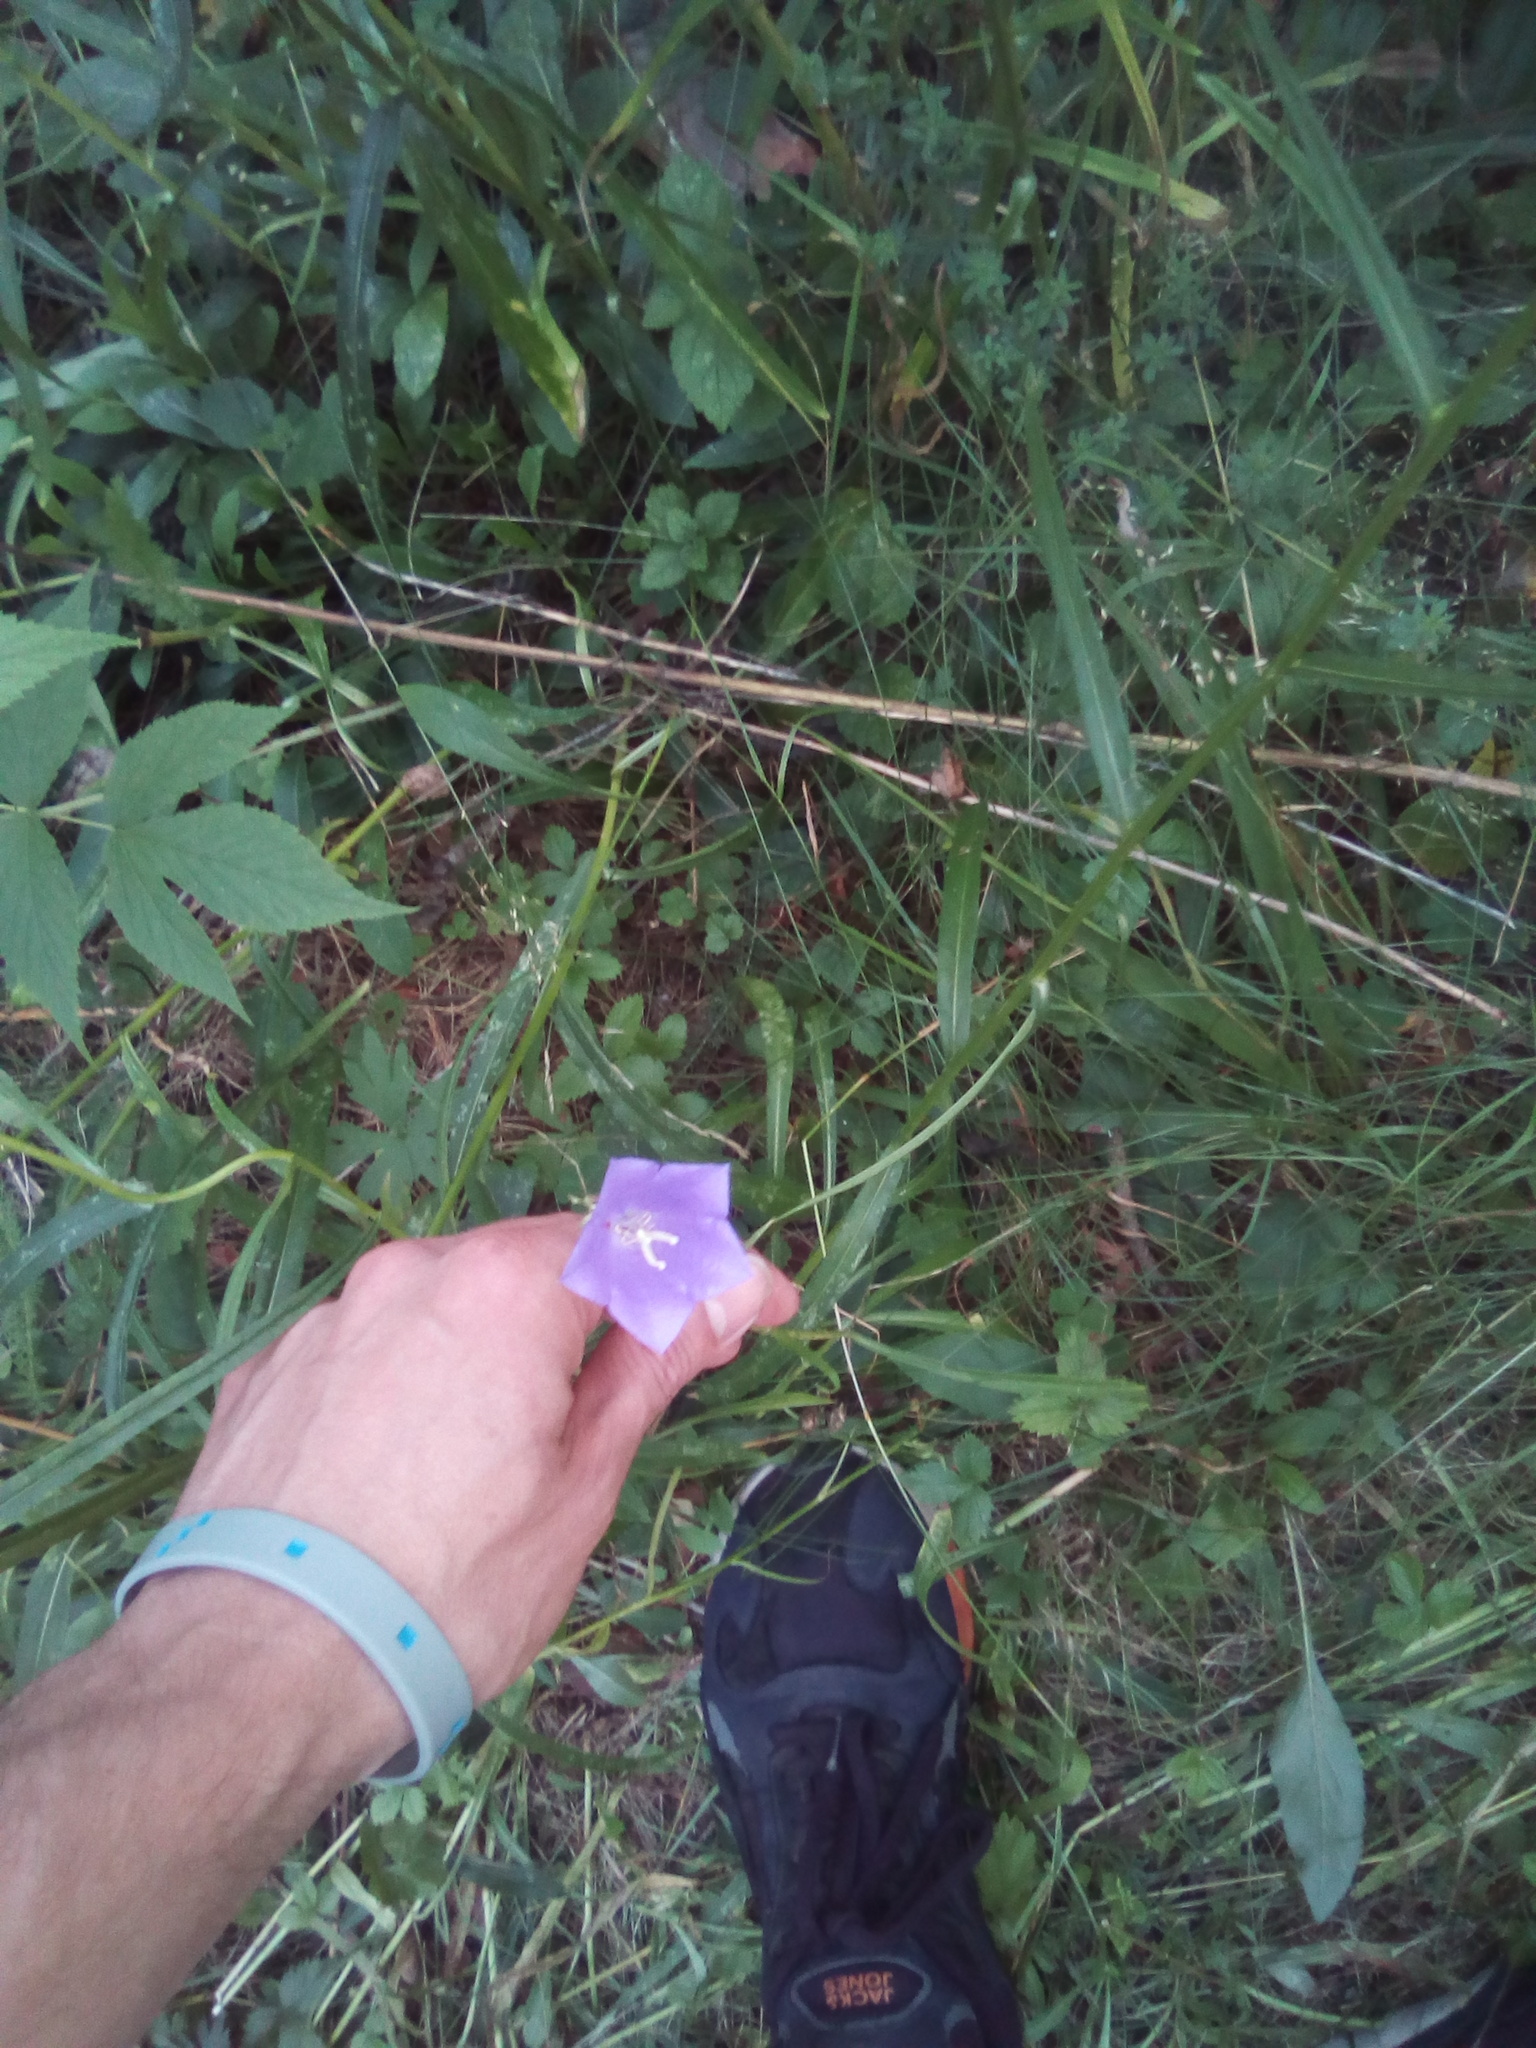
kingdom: Plantae
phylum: Tracheophyta
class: Magnoliopsida
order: Asterales
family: Campanulaceae
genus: Campanula
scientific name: Campanula persicifolia
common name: Peach-leaved bellflower
